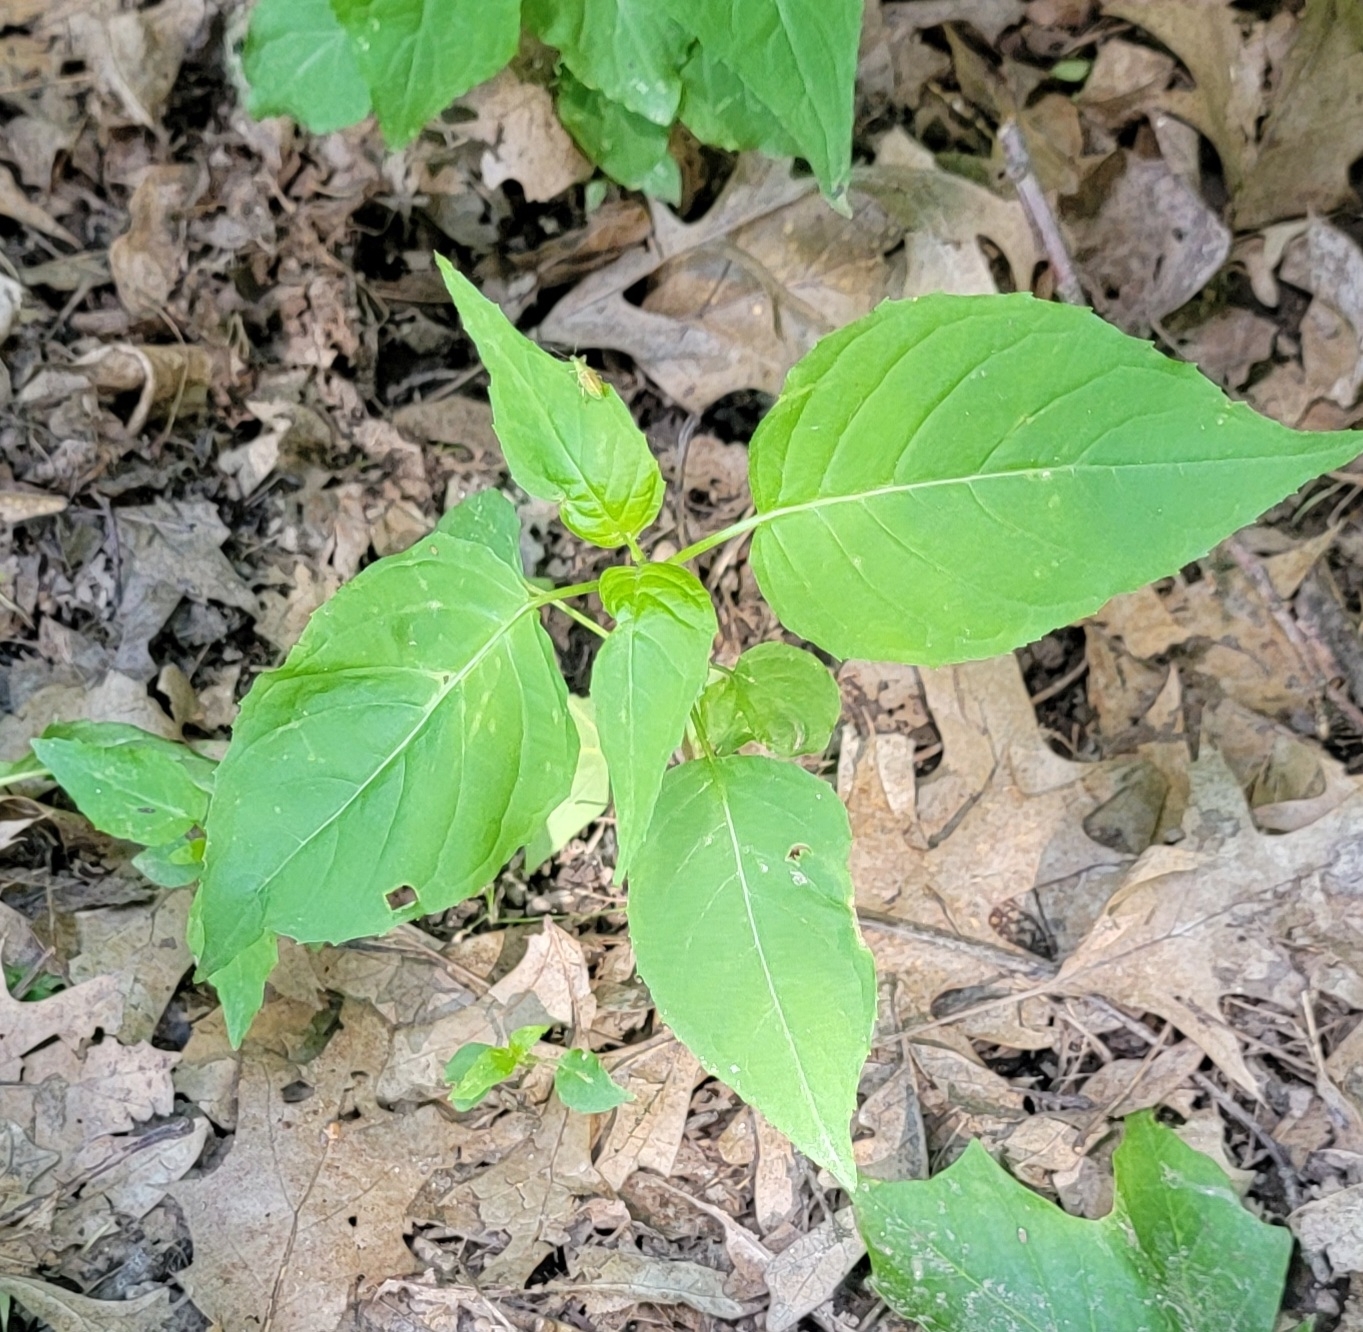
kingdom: Plantae
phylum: Tracheophyta
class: Magnoliopsida
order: Myrtales
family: Onagraceae
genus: Circaea
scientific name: Circaea canadensis
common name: Broad-leaved enchanter's nightshade
